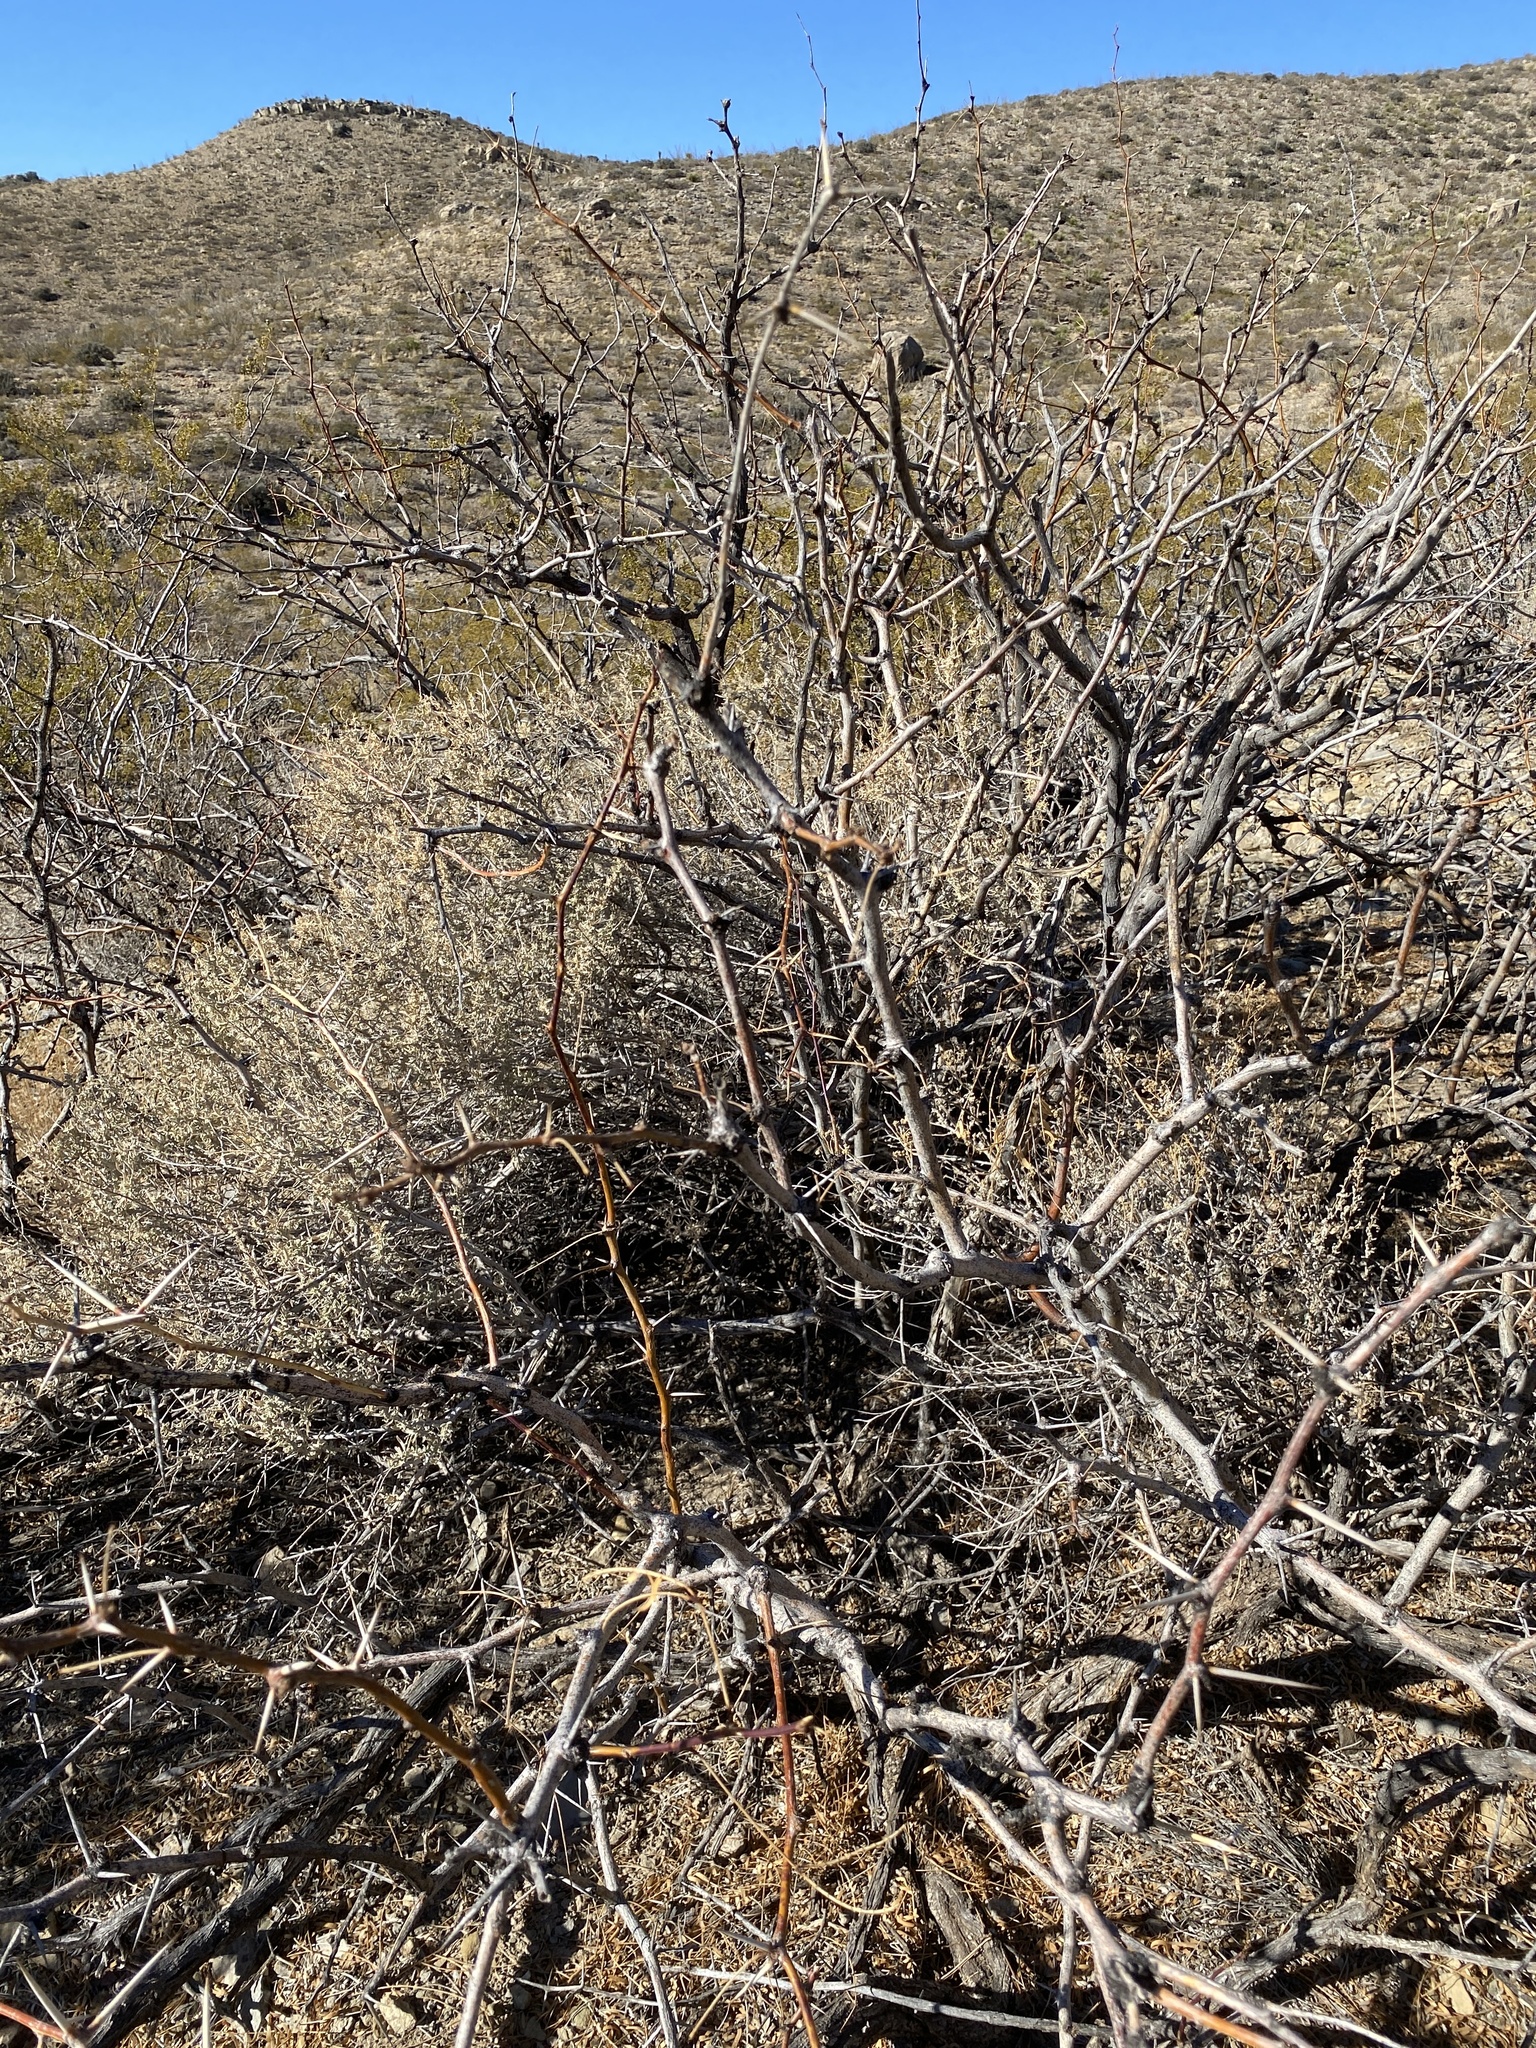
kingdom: Plantae
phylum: Tracheophyta
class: Magnoliopsida
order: Fabales
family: Fabaceae
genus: Prosopis
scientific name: Prosopis glandulosa
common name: Honey mesquite
